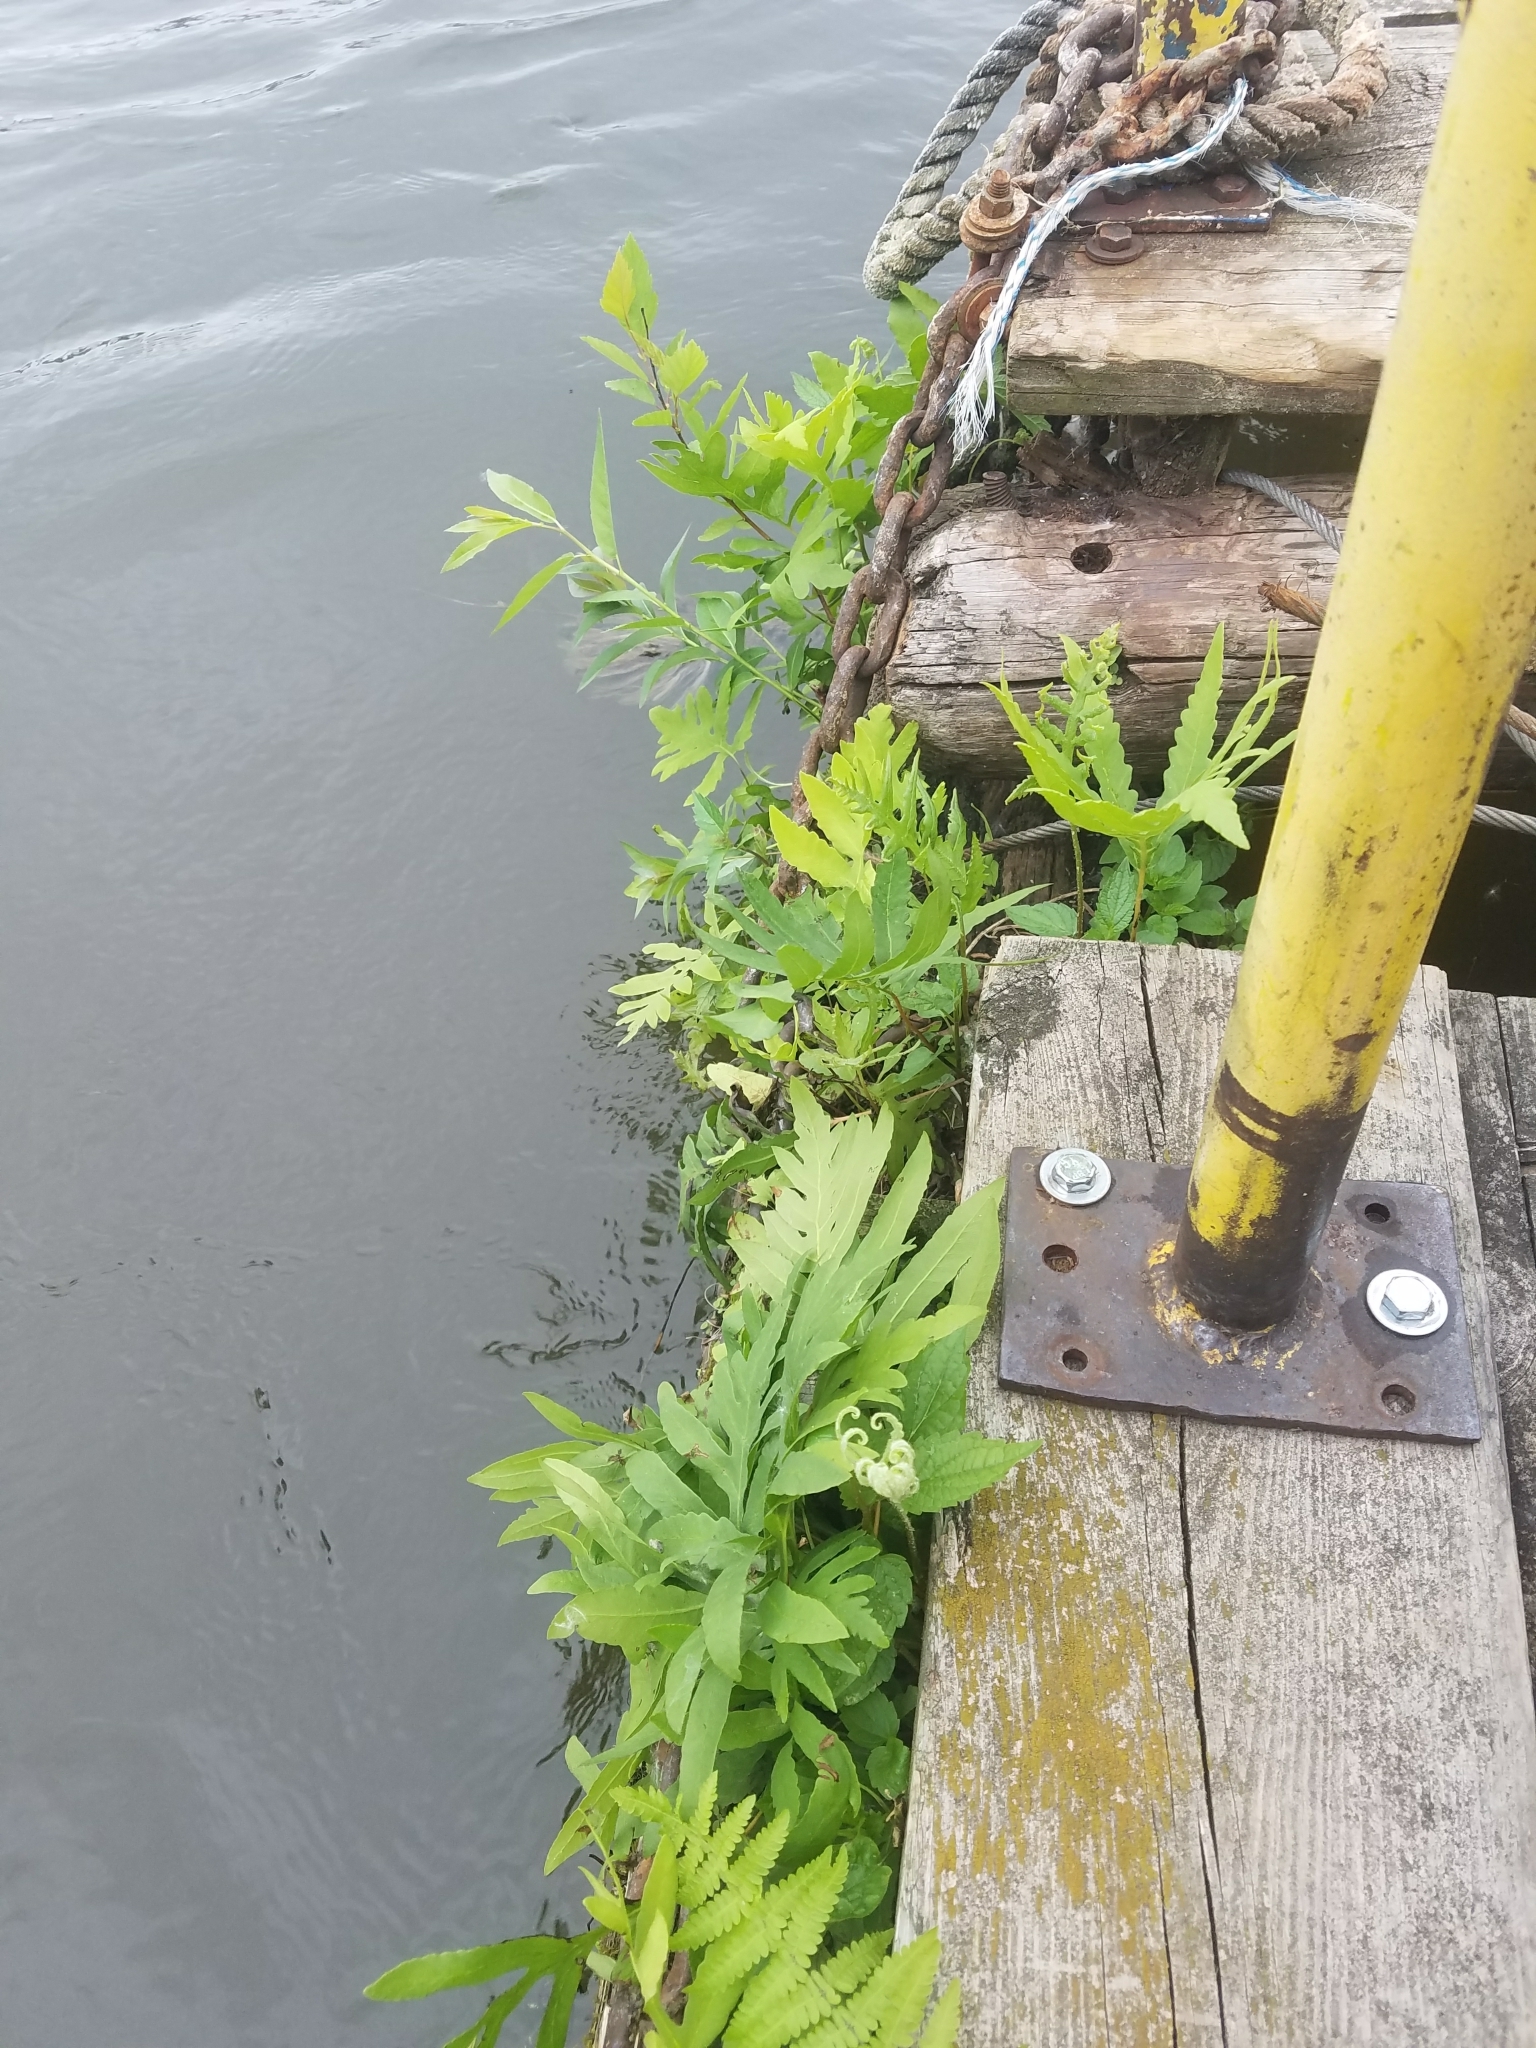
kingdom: Plantae
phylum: Tracheophyta
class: Polypodiopsida
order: Polypodiales
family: Onocleaceae
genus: Onoclea
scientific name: Onoclea sensibilis
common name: Sensitive fern
